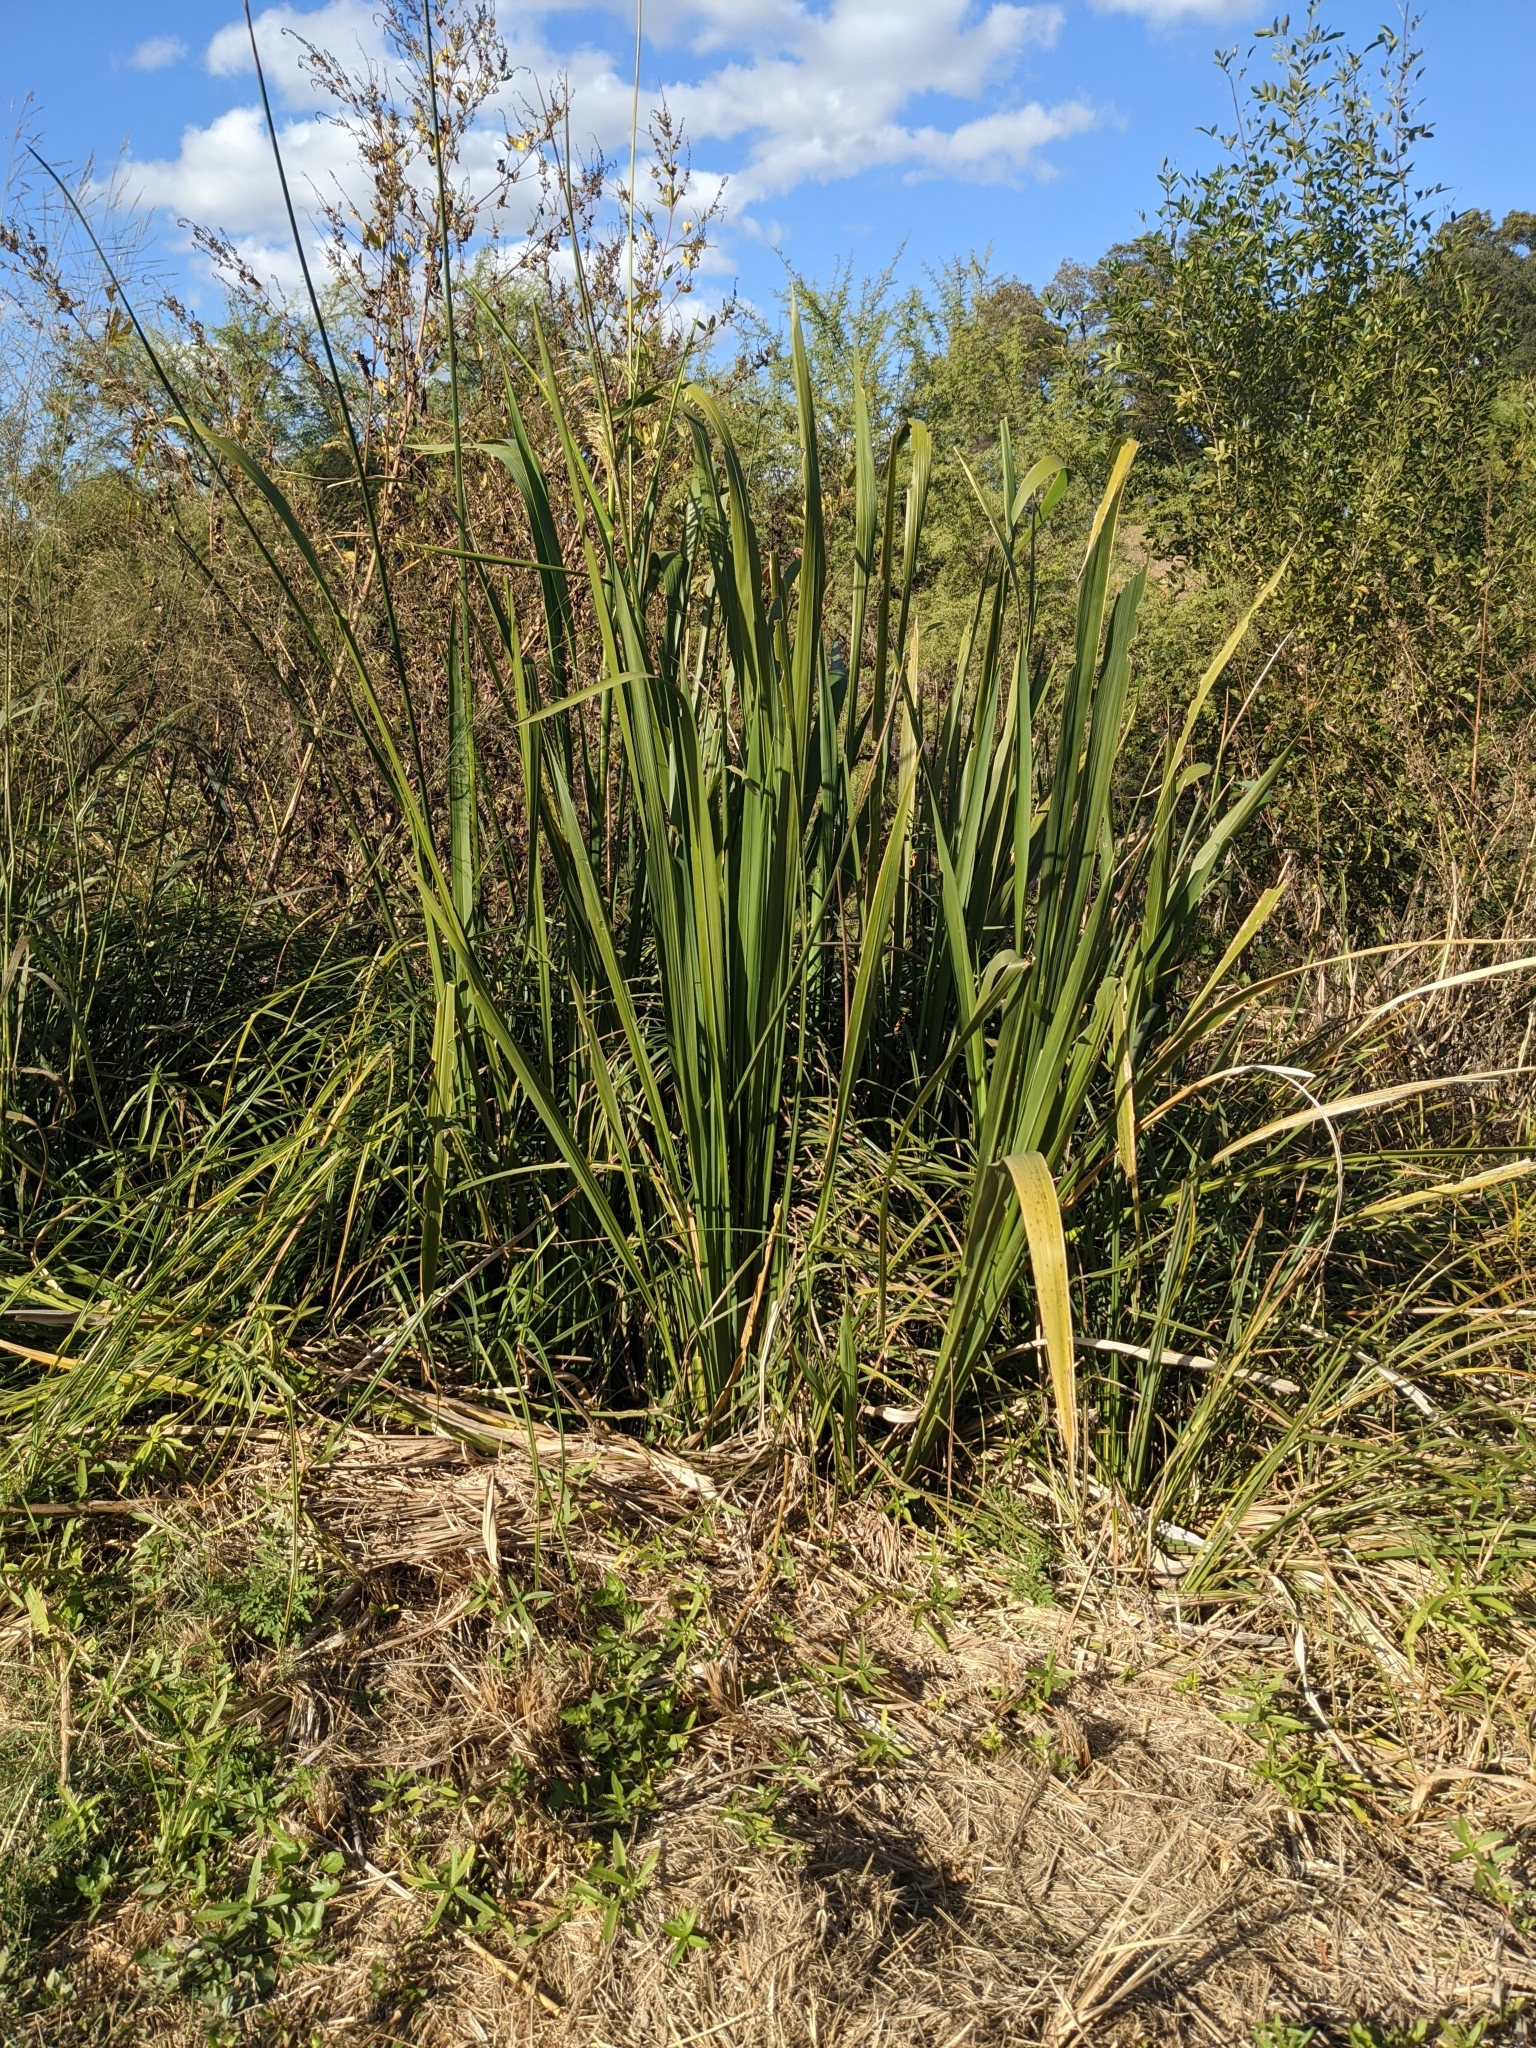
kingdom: Plantae
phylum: Tracheophyta
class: Liliopsida
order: Poales
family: Poaceae
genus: Zizaniopsis
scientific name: Zizaniopsis miliacea
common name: Giant-cutgrass
